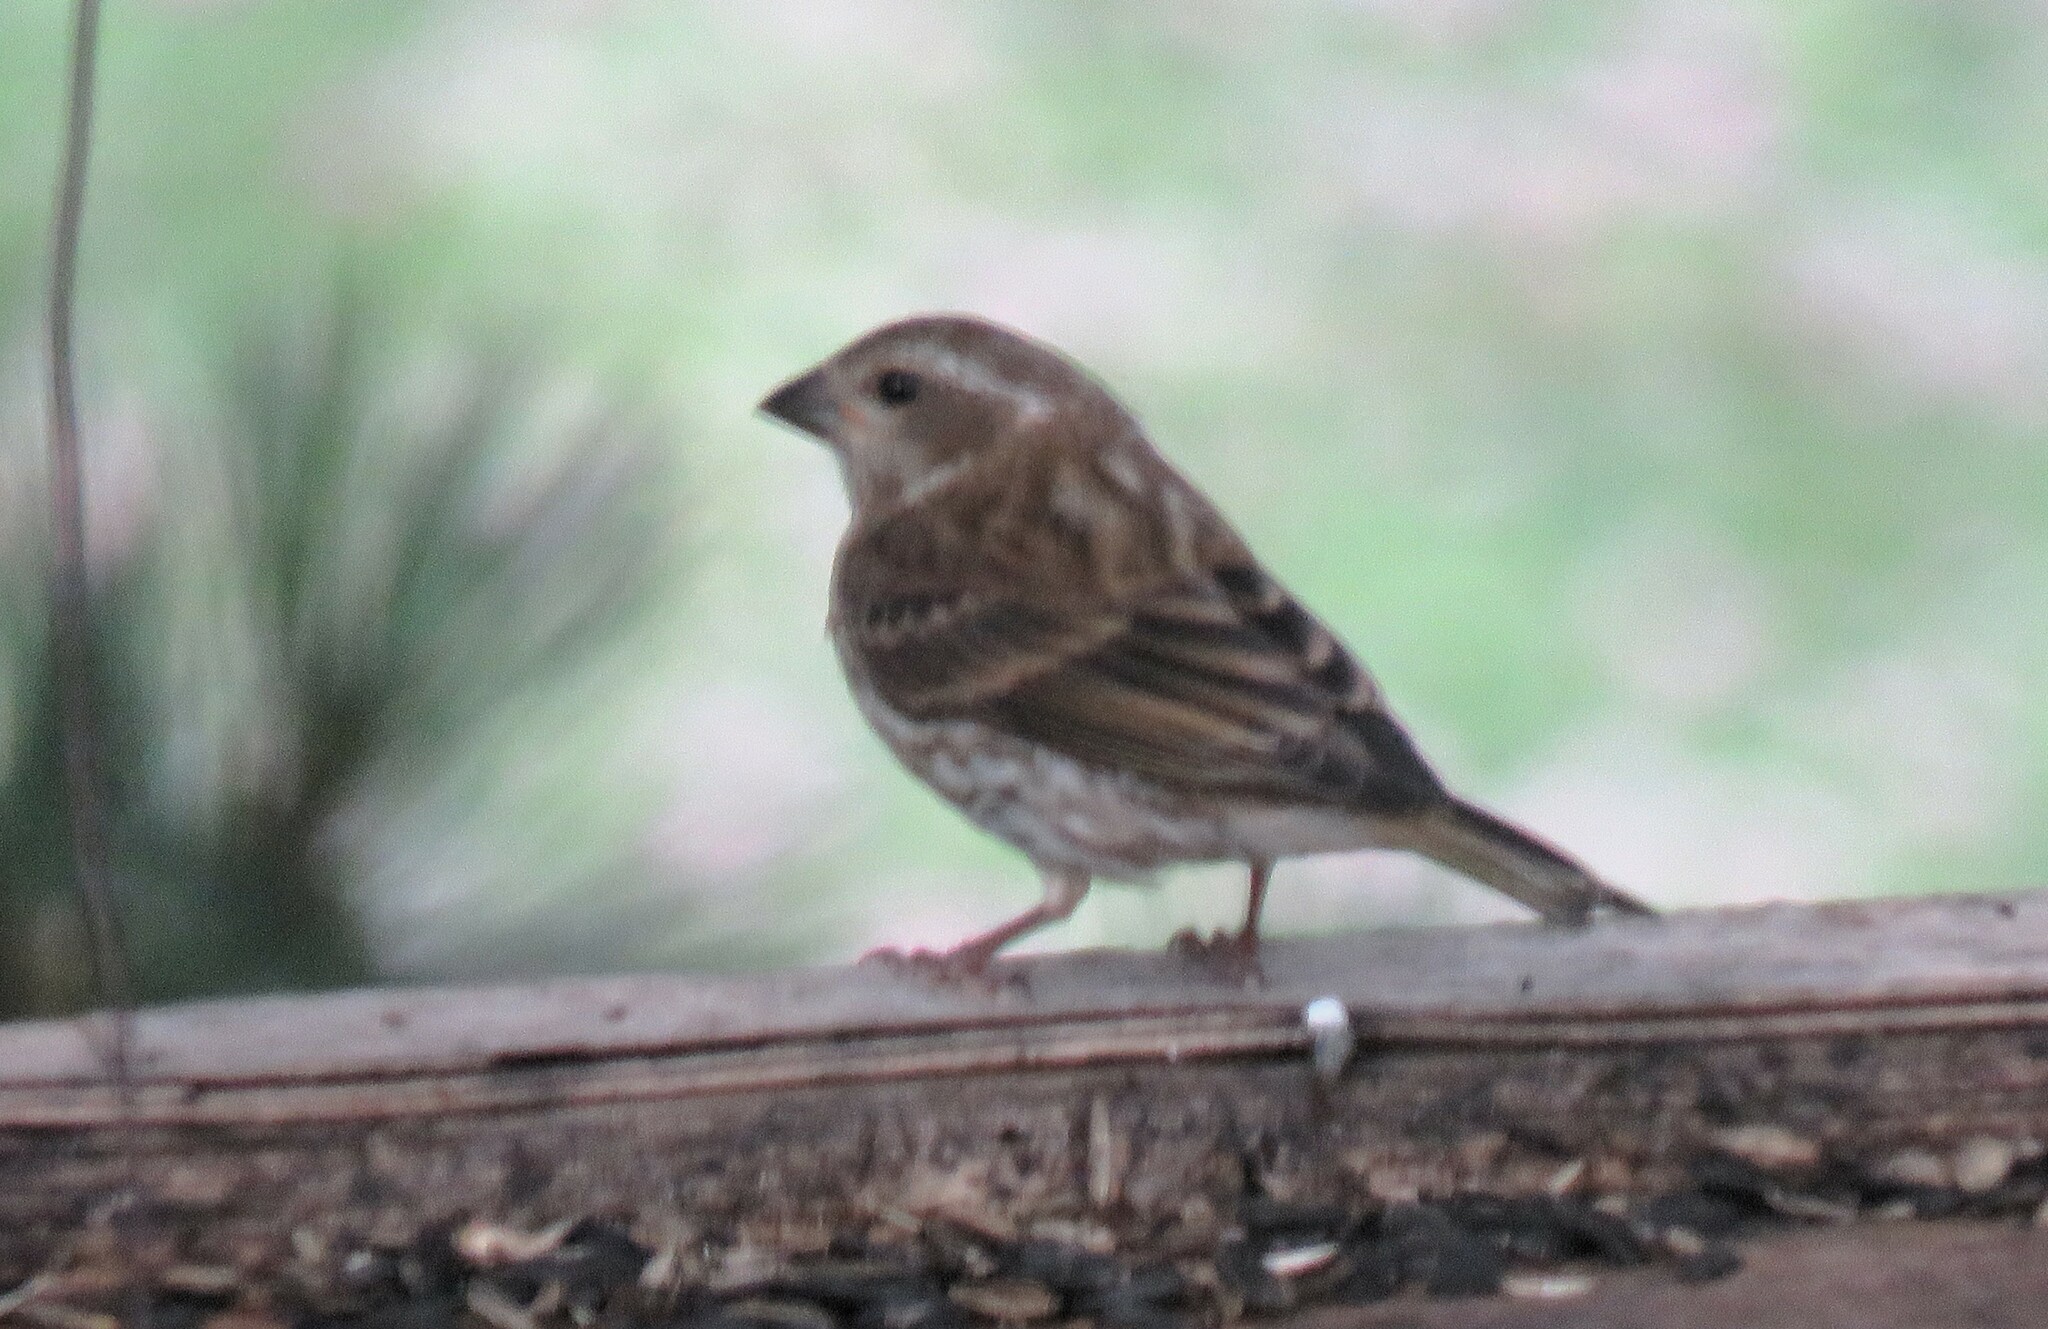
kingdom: Animalia
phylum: Chordata
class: Aves
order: Passeriformes
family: Fringillidae
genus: Haemorhous
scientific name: Haemorhous purpureus
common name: Purple finch
